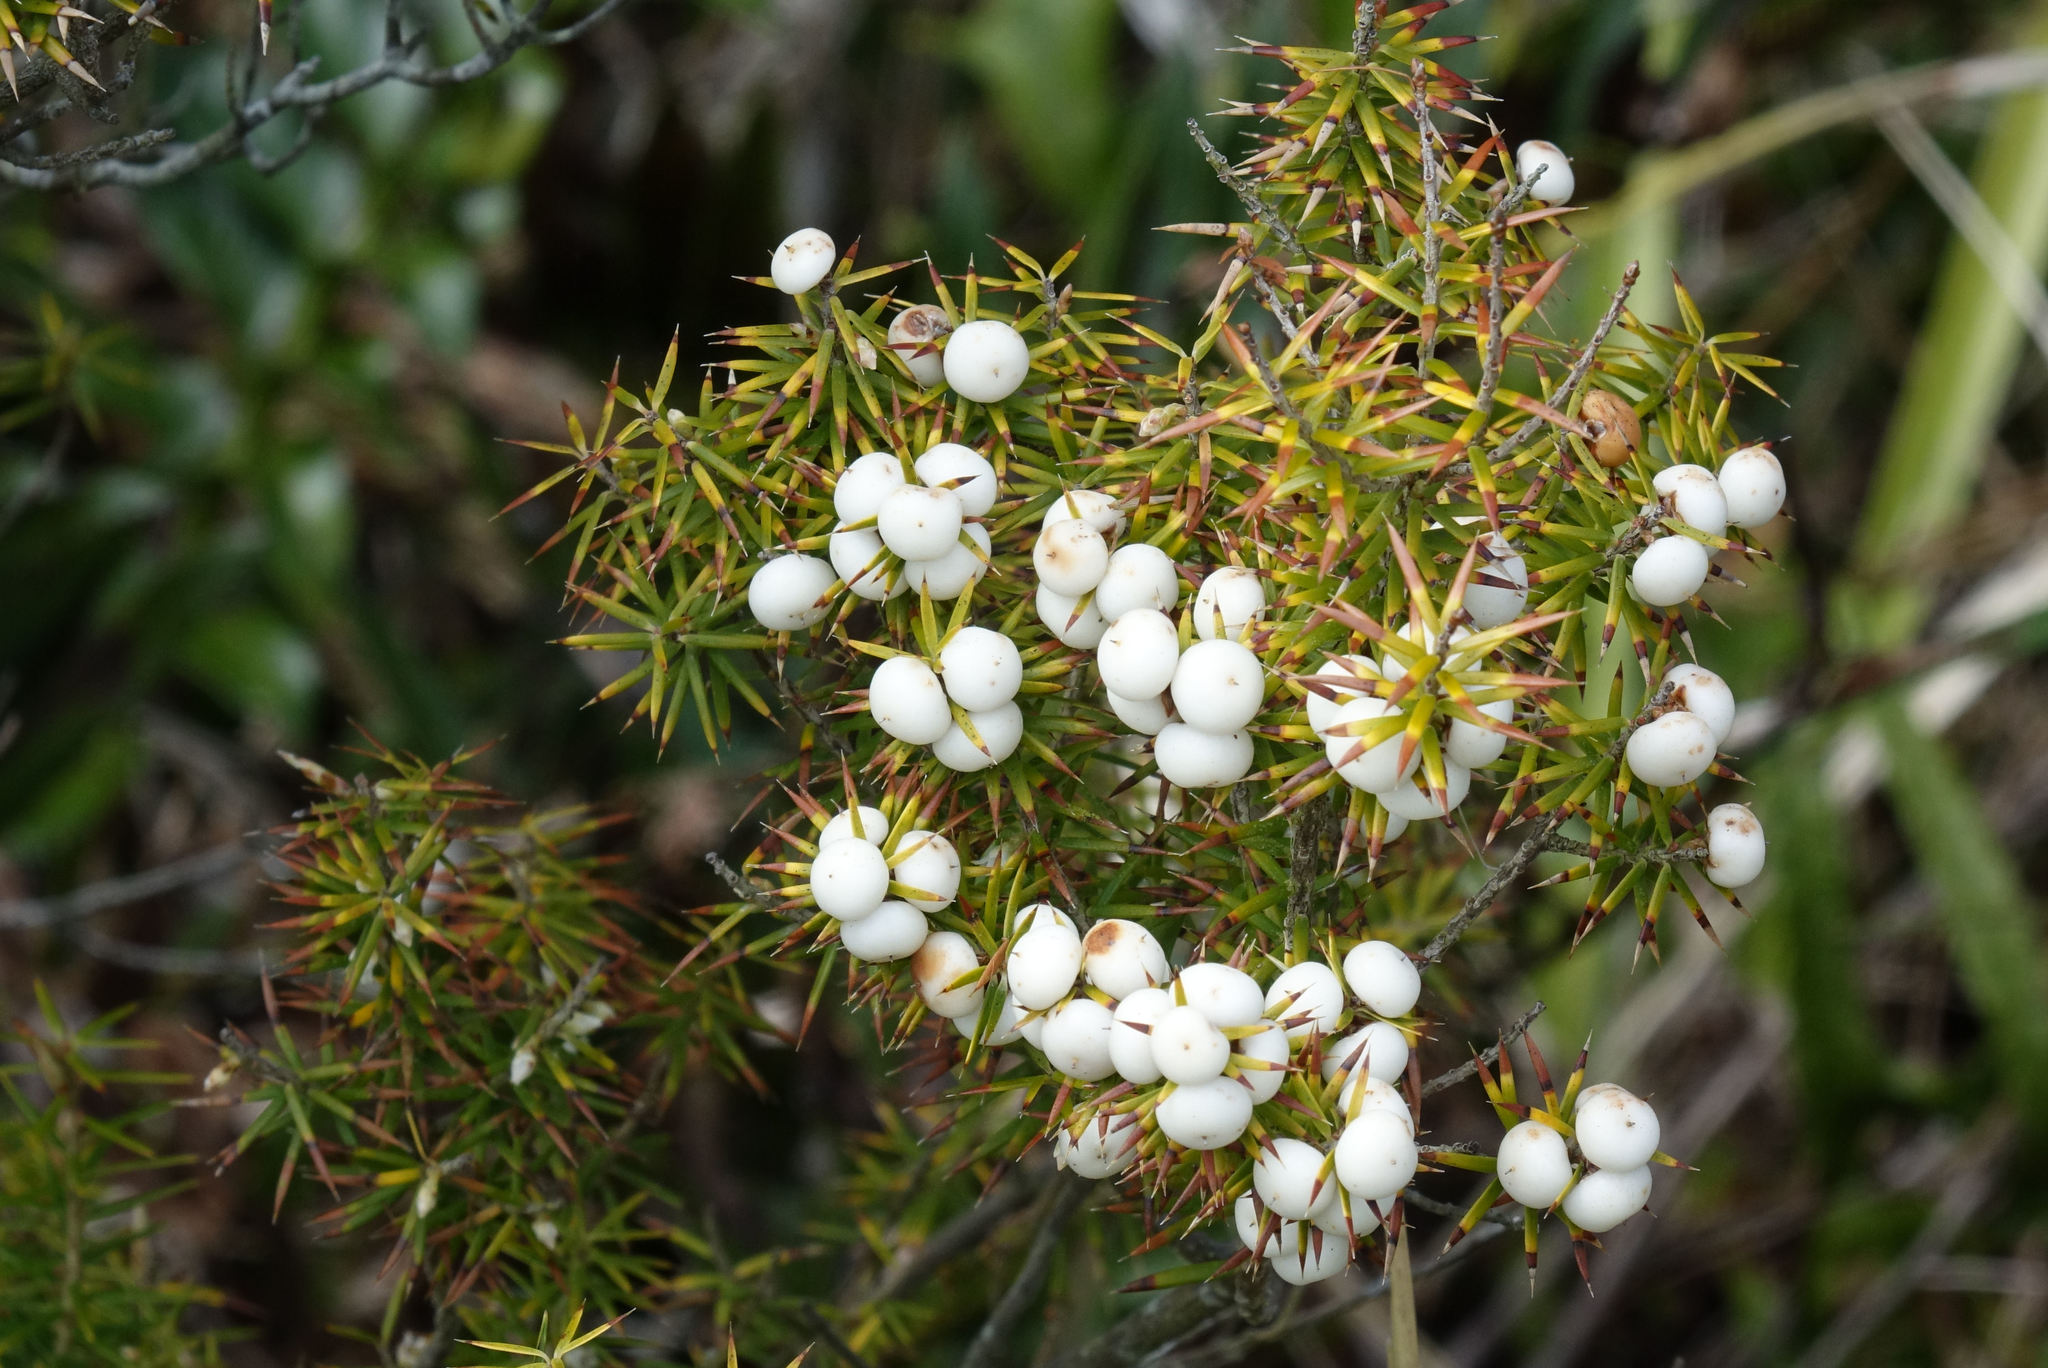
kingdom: Plantae
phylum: Tracheophyta
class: Magnoliopsida
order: Ericales
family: Ericaceae
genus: Leptecophylla
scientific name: Leptecophylla juniperina
